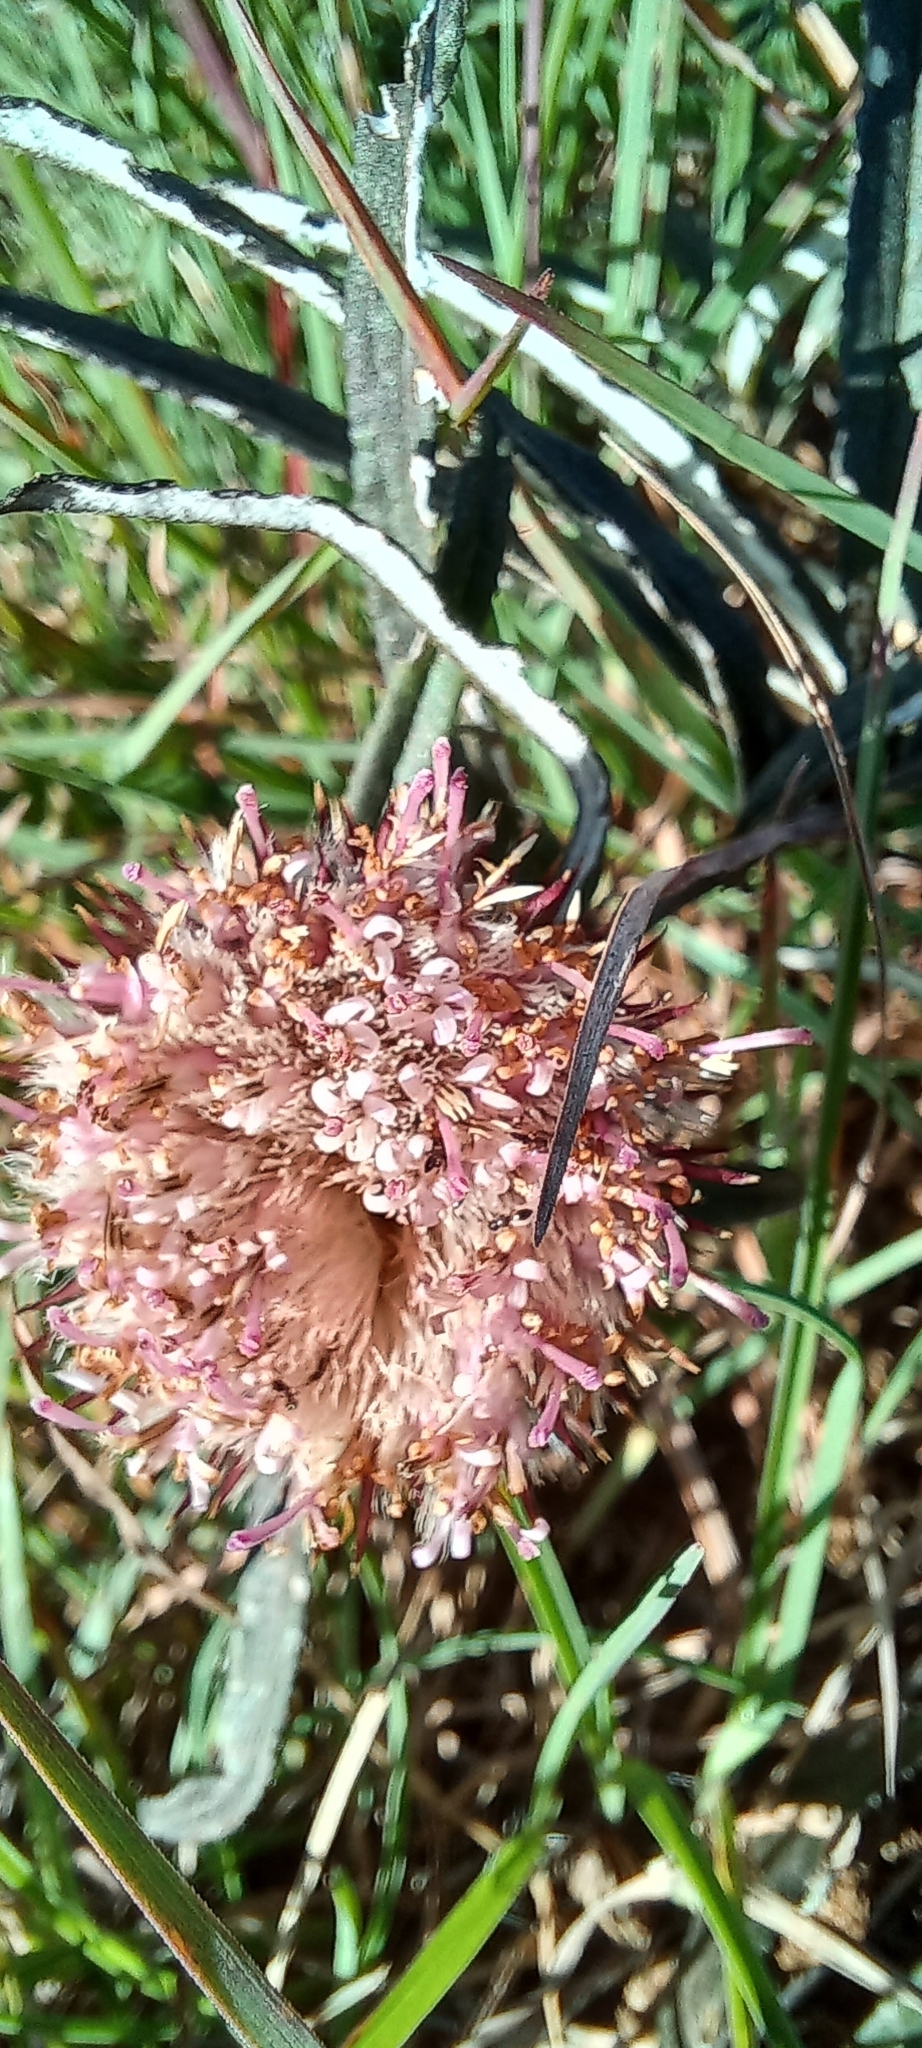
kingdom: Plantae
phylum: Tracheophyta
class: Magnoliopsida
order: Asterales
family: Asteraceae
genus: Dicoma
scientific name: Dicoma anomala
